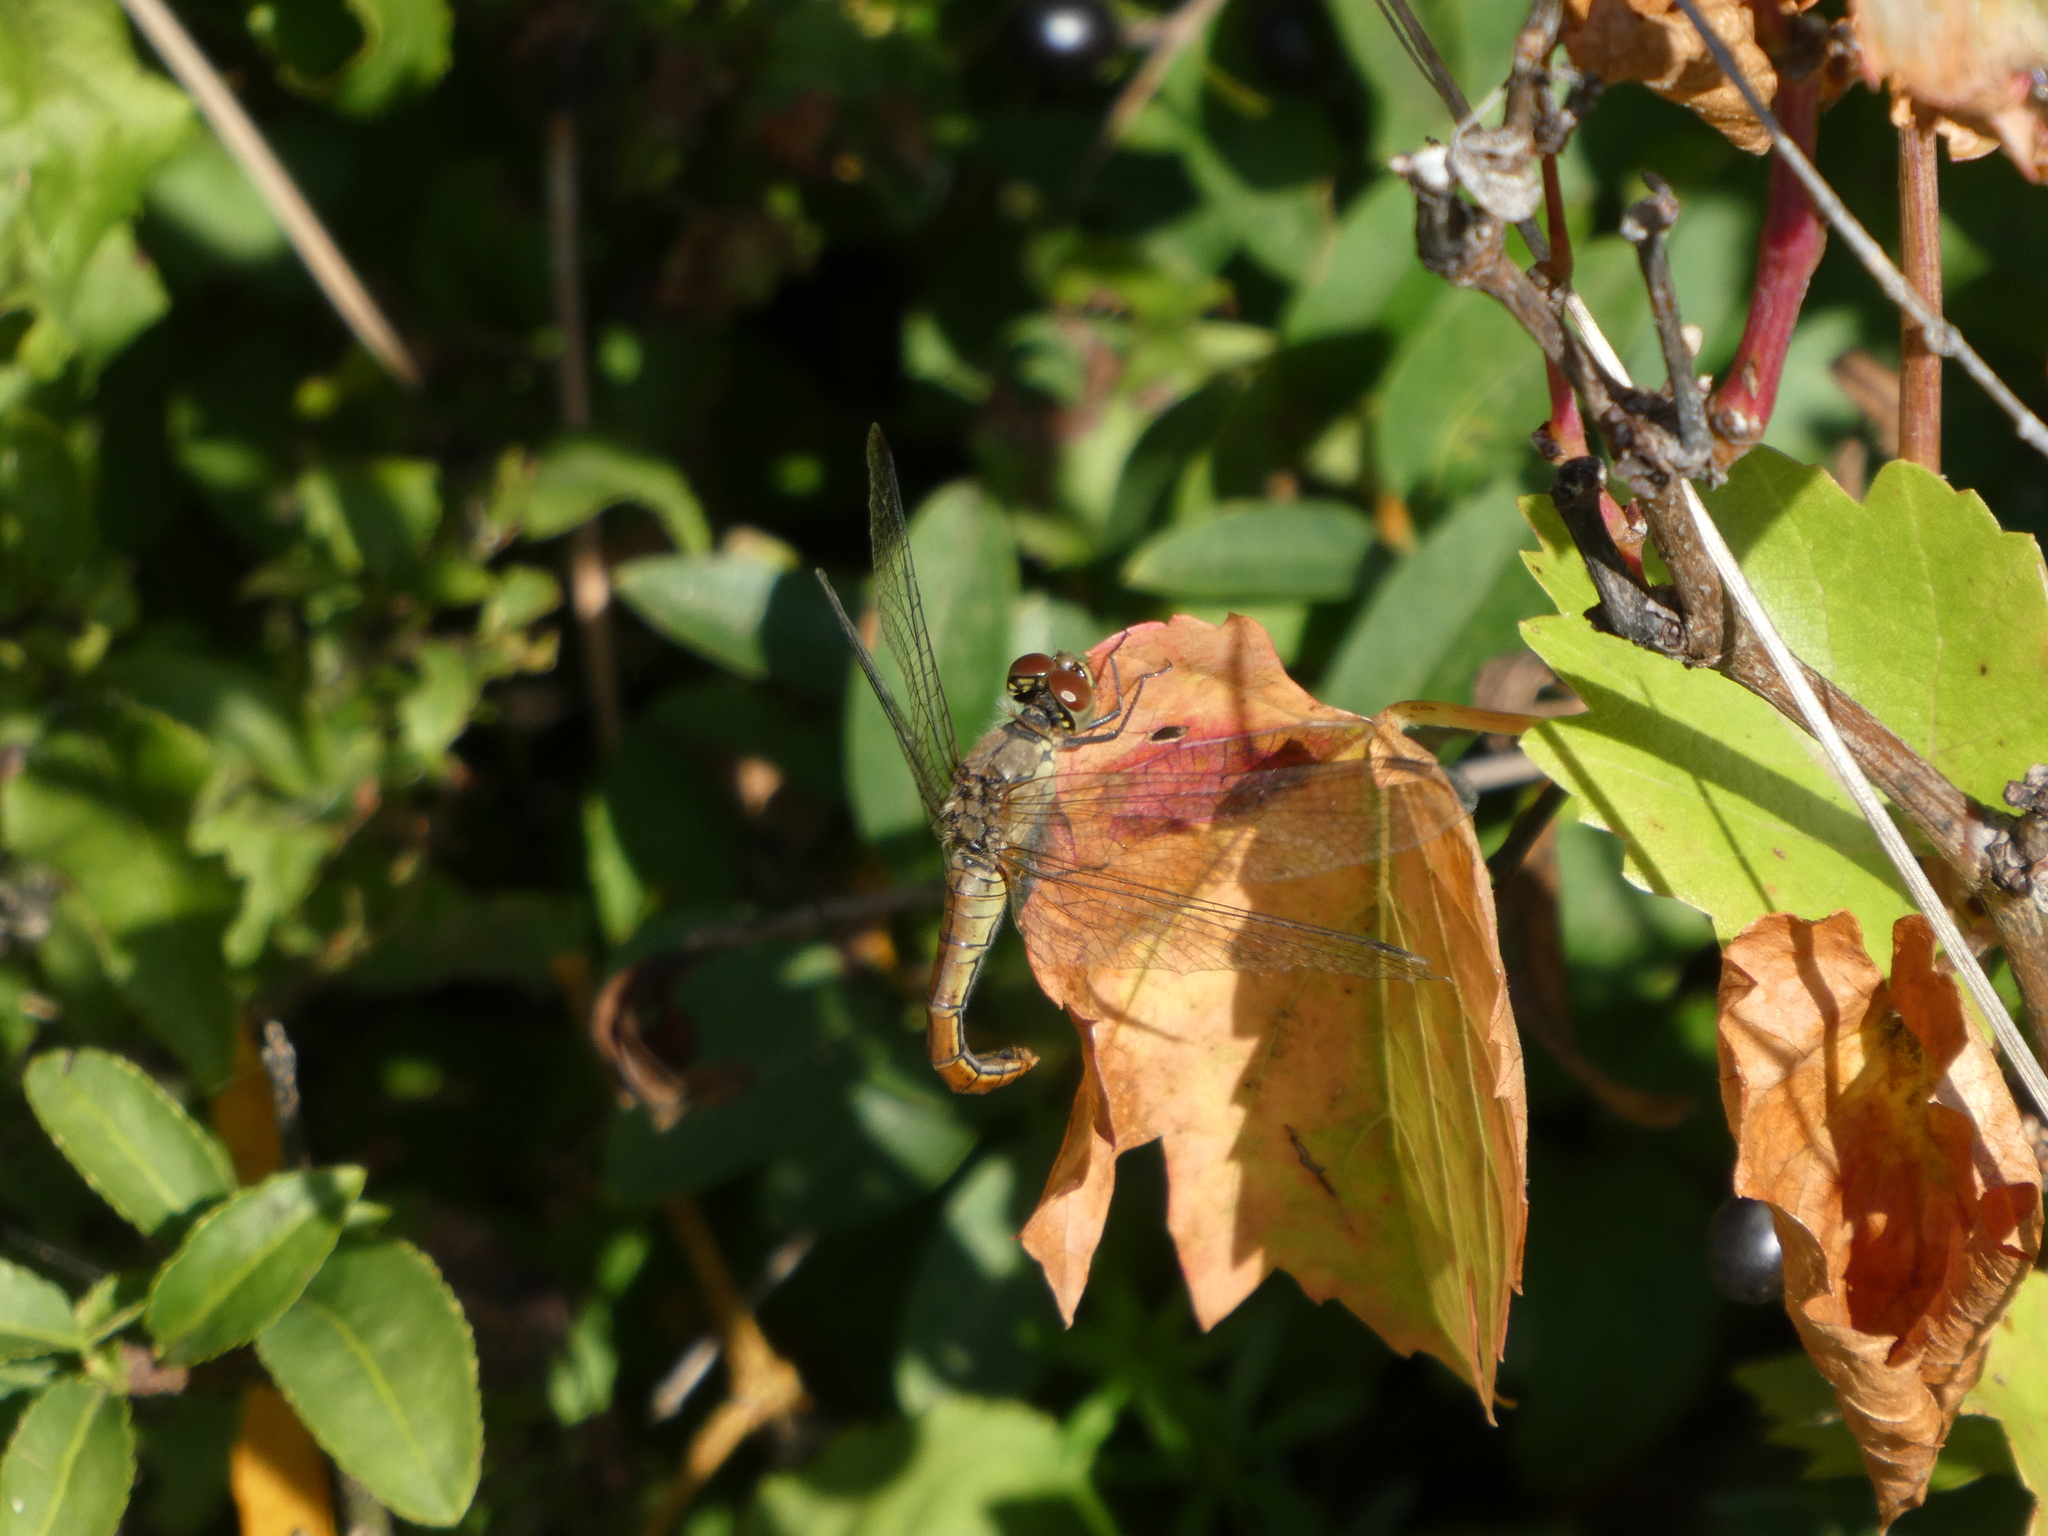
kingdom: Animalia
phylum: Arthropoda
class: Insecta
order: Odonata
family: Libellulidae
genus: Sympetrum
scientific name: Sympetrum sanguineum
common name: Ruddy darter
